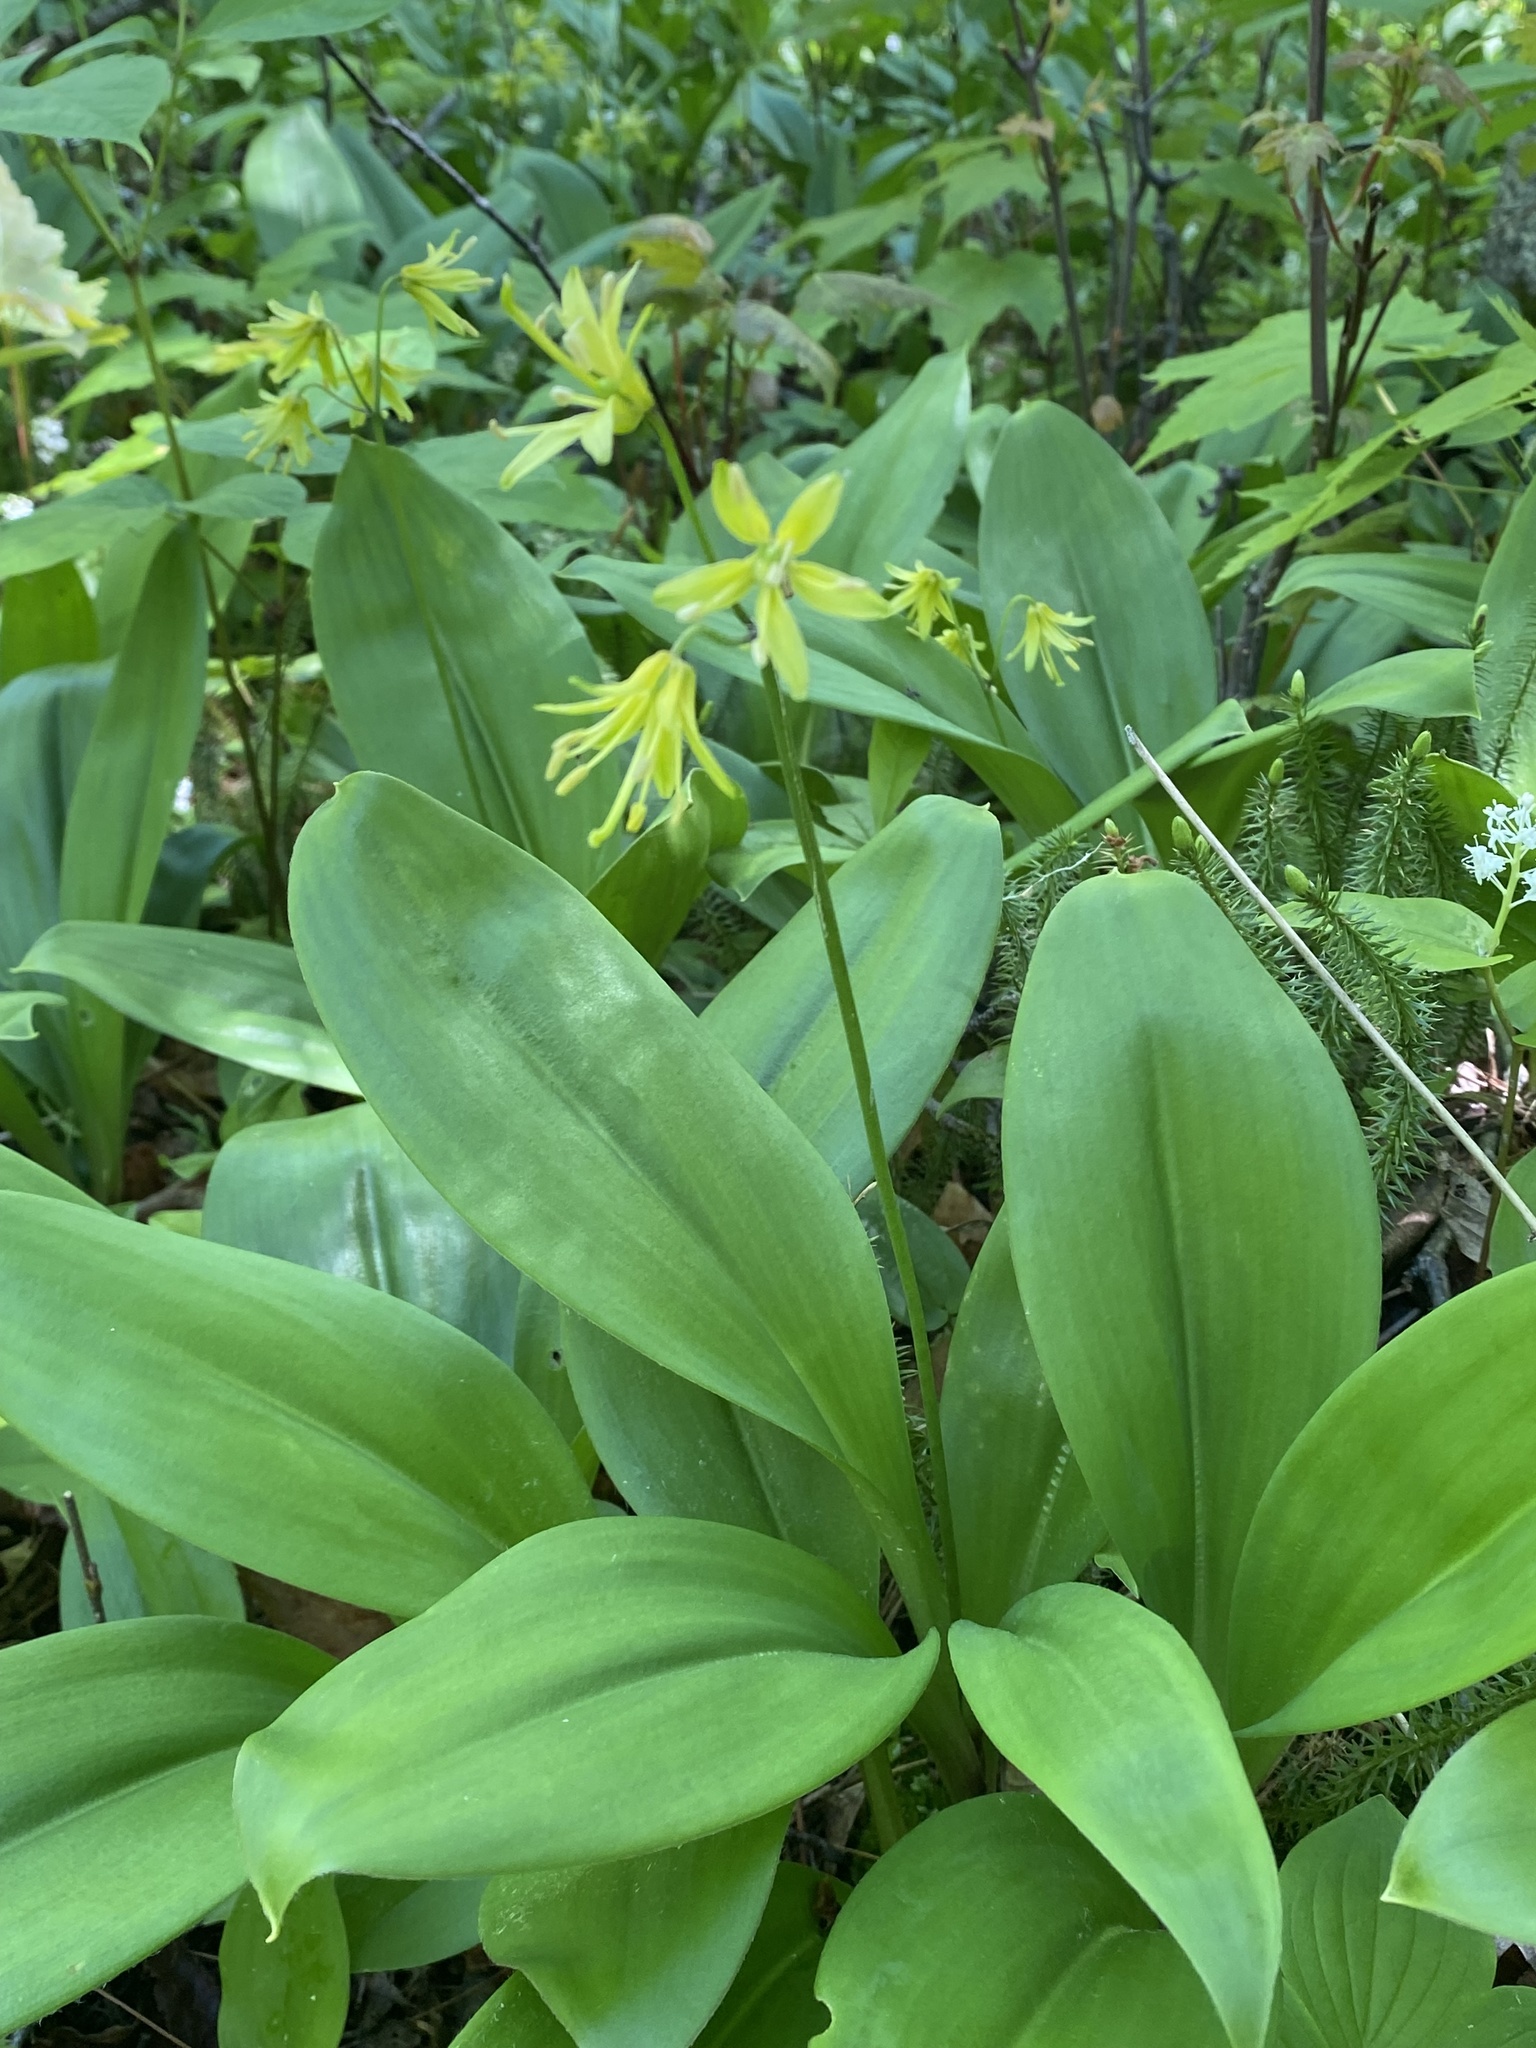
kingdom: Plantae
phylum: Tracheophyta
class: Liliopsida
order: Liliales
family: Liliaceae
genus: Clintonia
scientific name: Clintonia borealis
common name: Yellow clintonia
